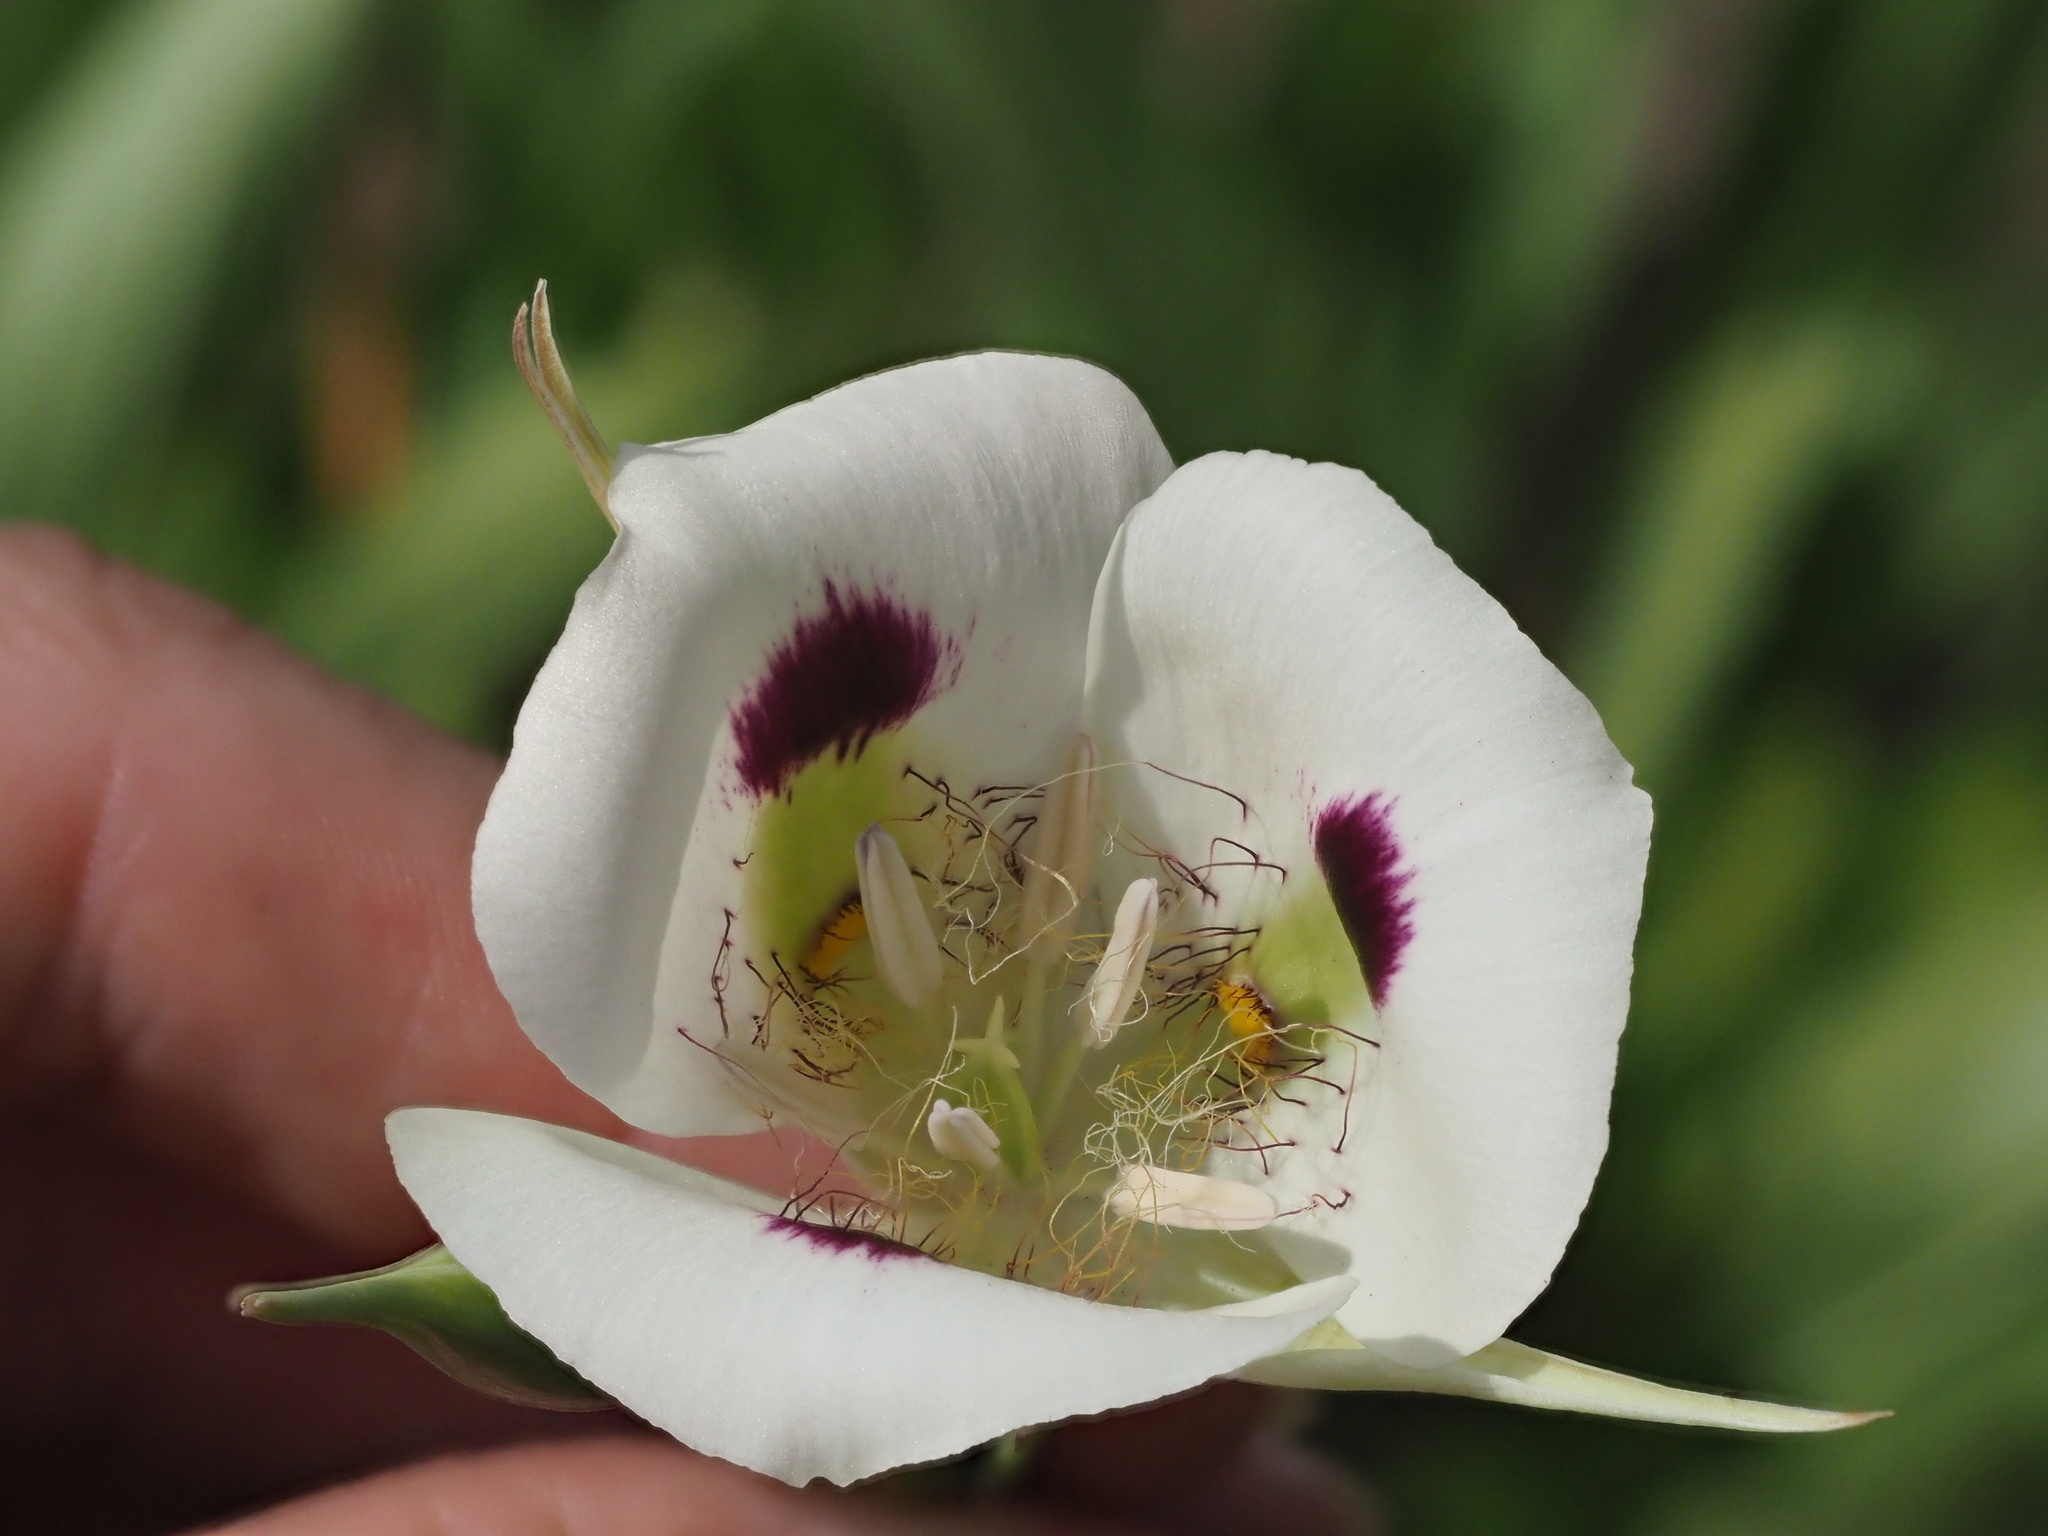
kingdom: Plantae
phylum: Tracheophyta
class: Liliopsida
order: Liliales
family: Liliaceae
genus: Calochortus
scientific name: Calochortus eurycarpus
